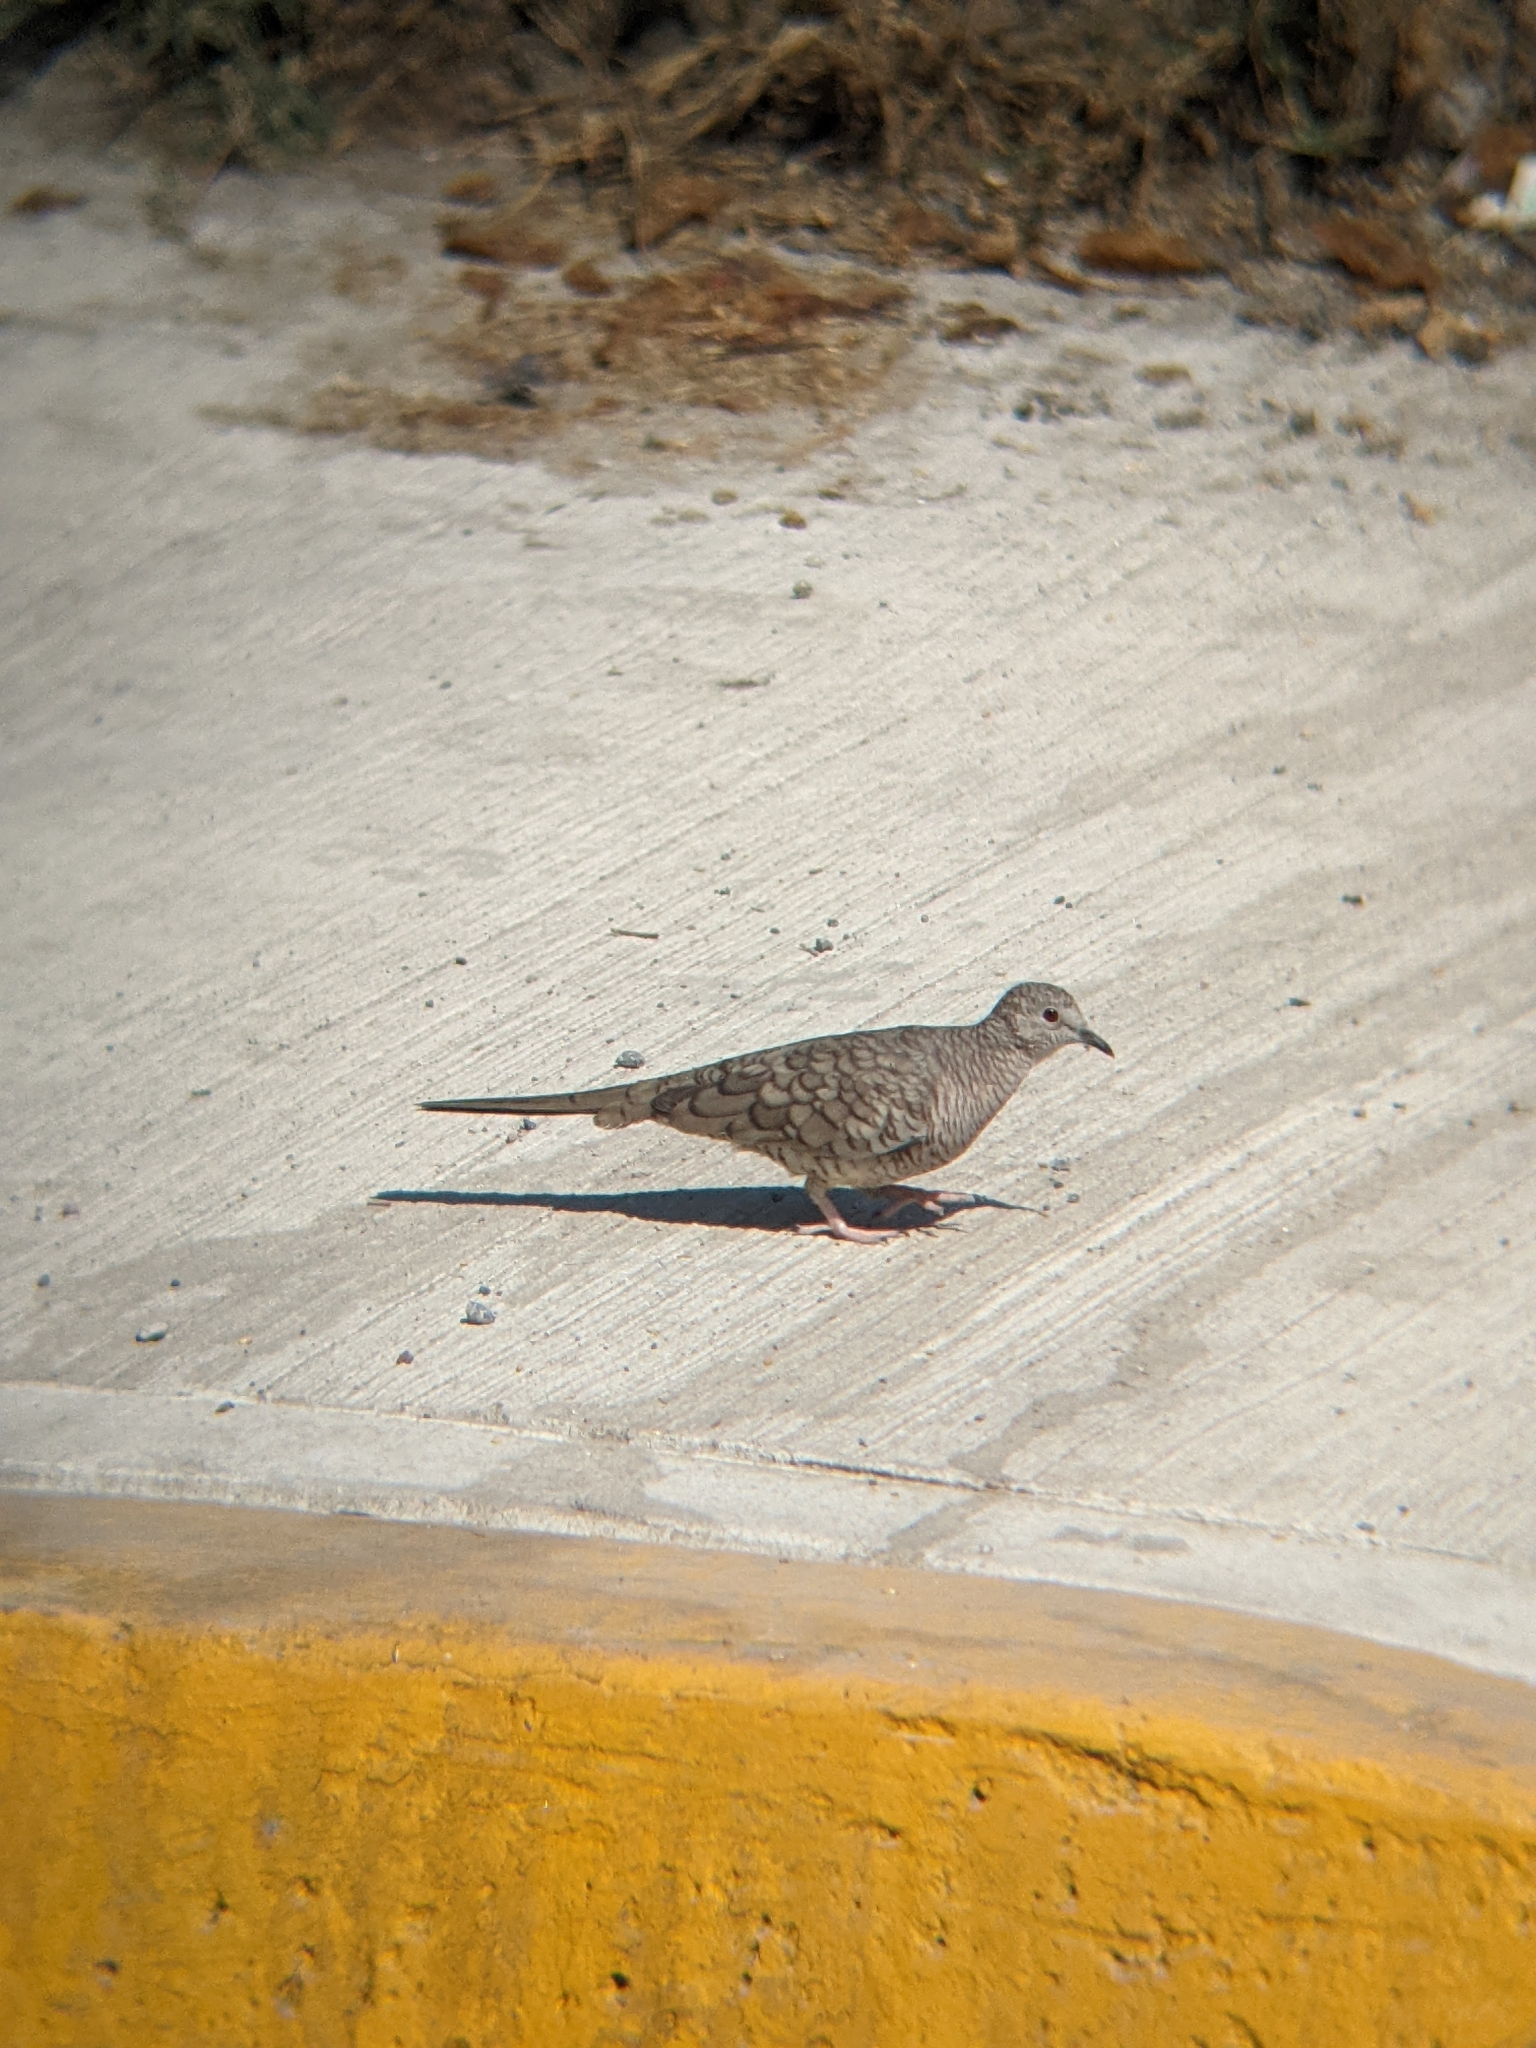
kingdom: Animalia
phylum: Chordata
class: Aves
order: Columbiformes
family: Columbidae
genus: Columbina
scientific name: Columbina inca
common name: Inca dove
